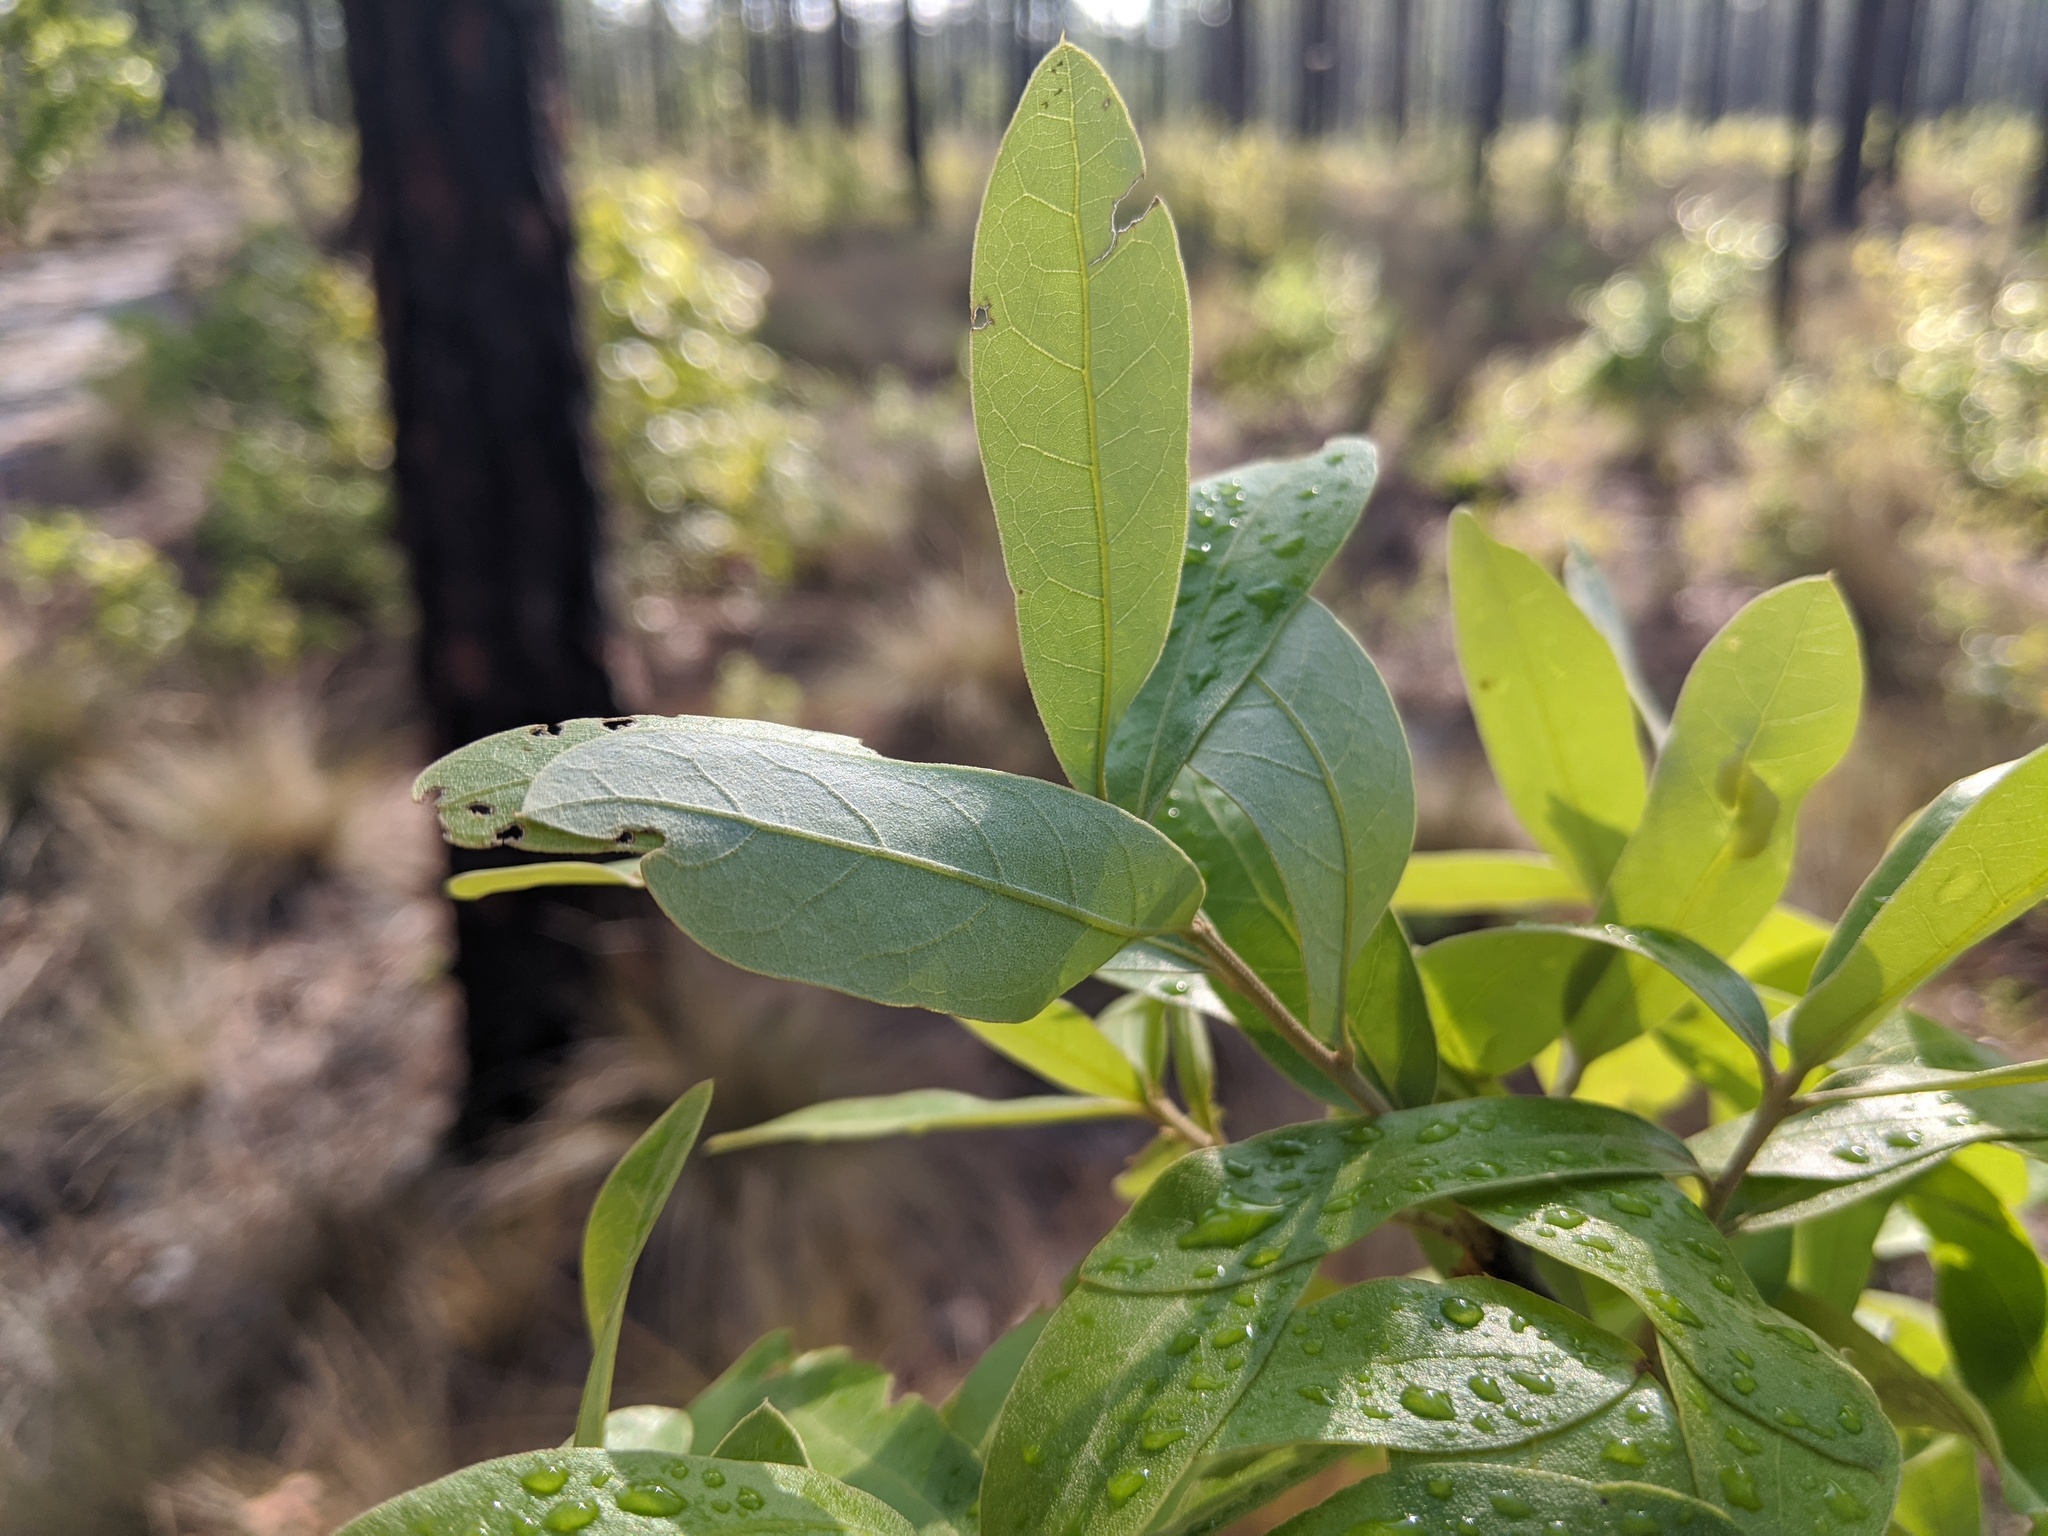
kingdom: Plantae
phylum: Tracheophyta
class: Magnoliopsida
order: Fagales
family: Fagaceae
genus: Quercus
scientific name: Quercus incana
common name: Bluejack oak
